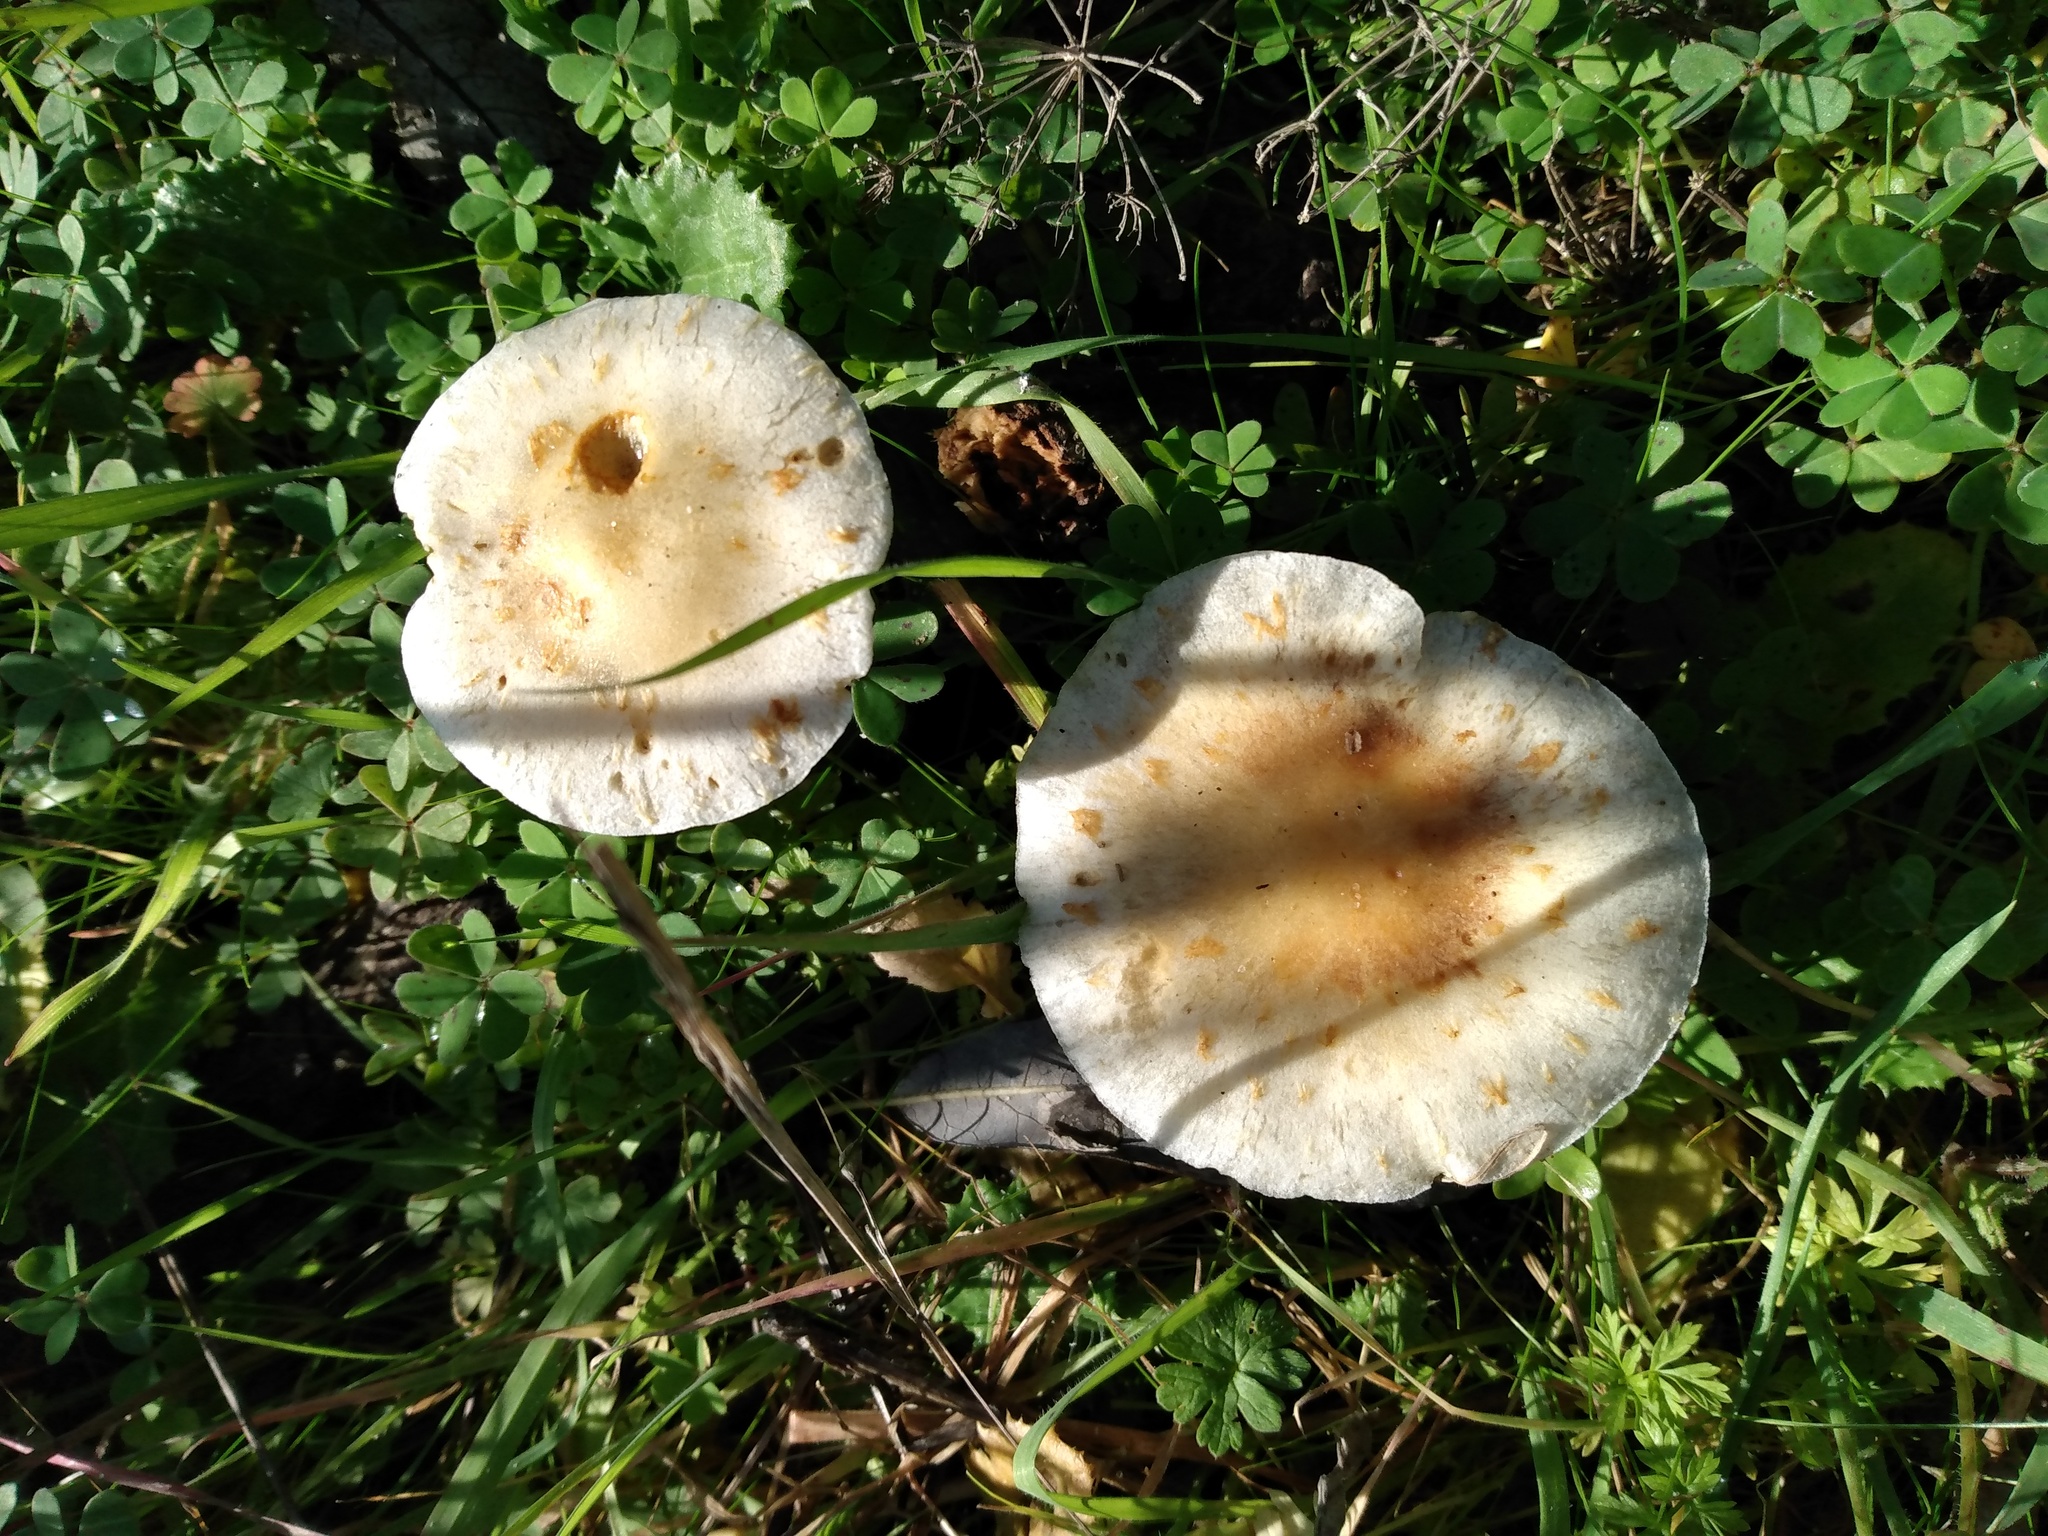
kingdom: Fungi
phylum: Basidiomycota
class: Agaricomycetes
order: Agaricales
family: Strophariaceae
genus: Leratiomyces
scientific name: Leratiomyces percevalii
